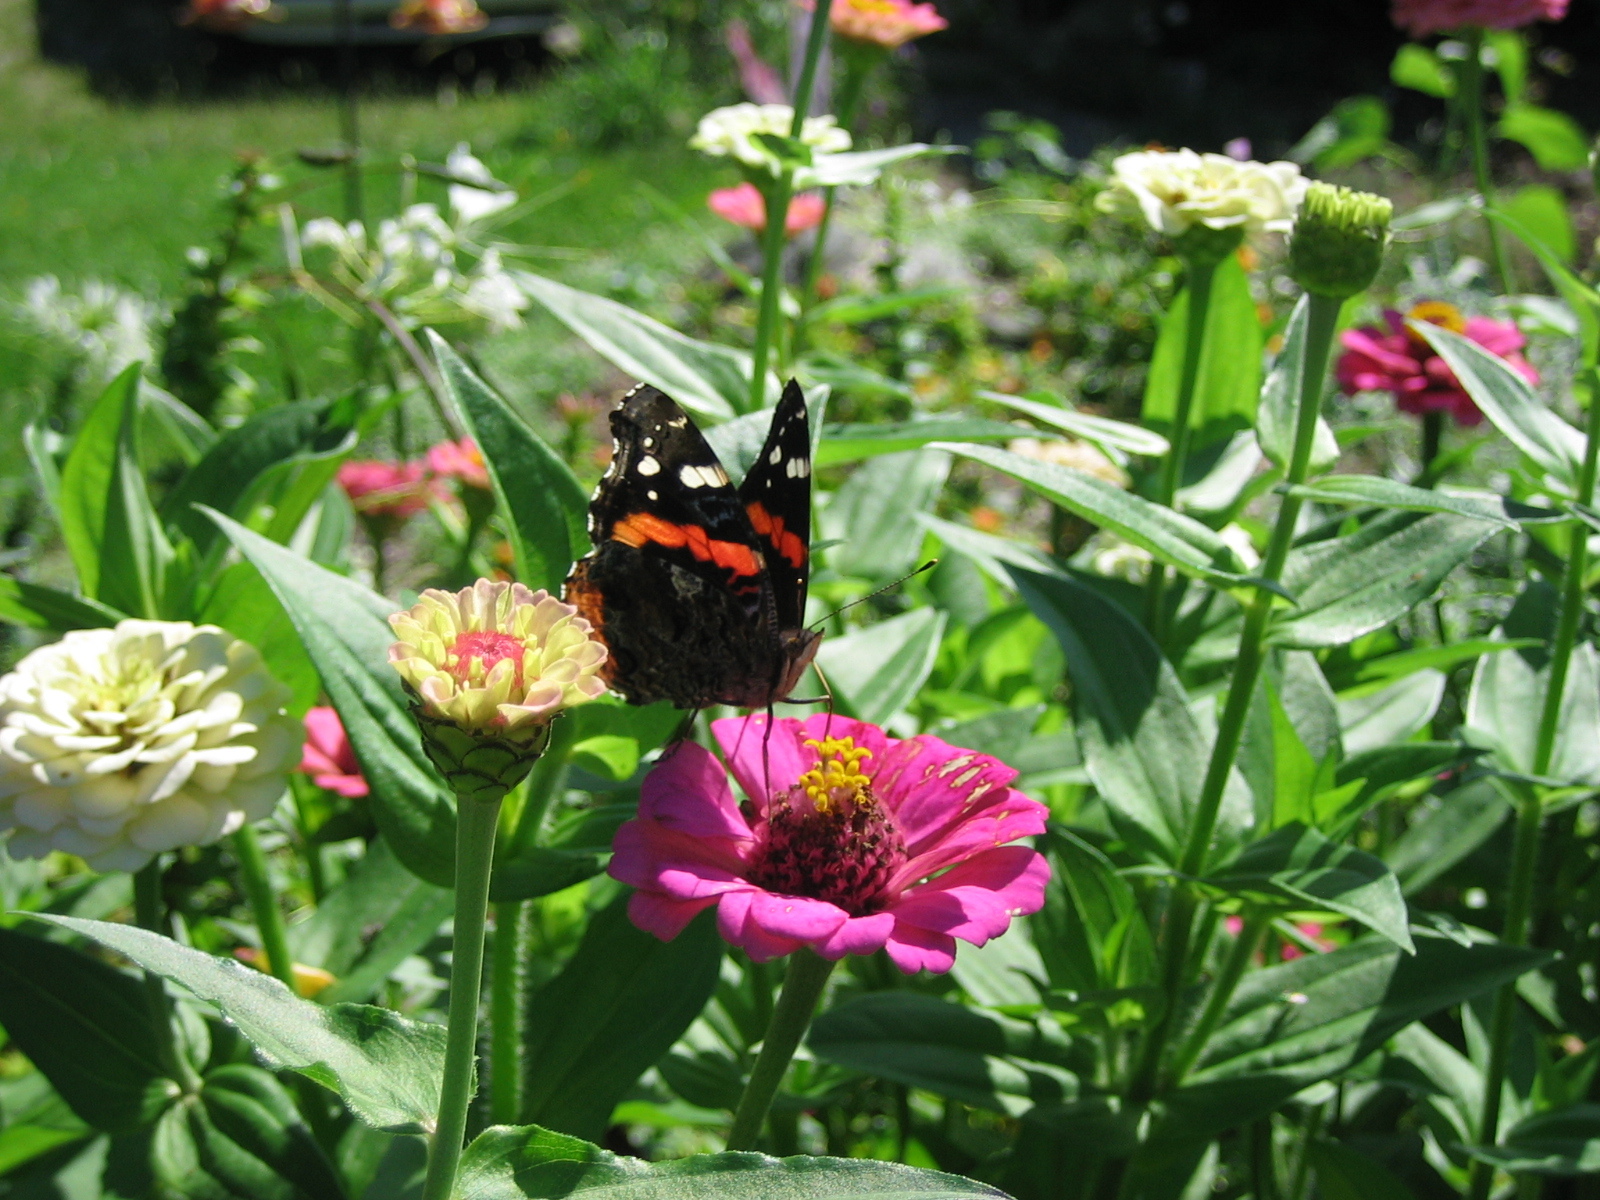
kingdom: Animalia
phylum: Arthropoda
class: Insecta
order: Lepidoptera
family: Nymphalidae
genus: Vanessa
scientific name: Vanessa atalanta
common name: Red admiral
